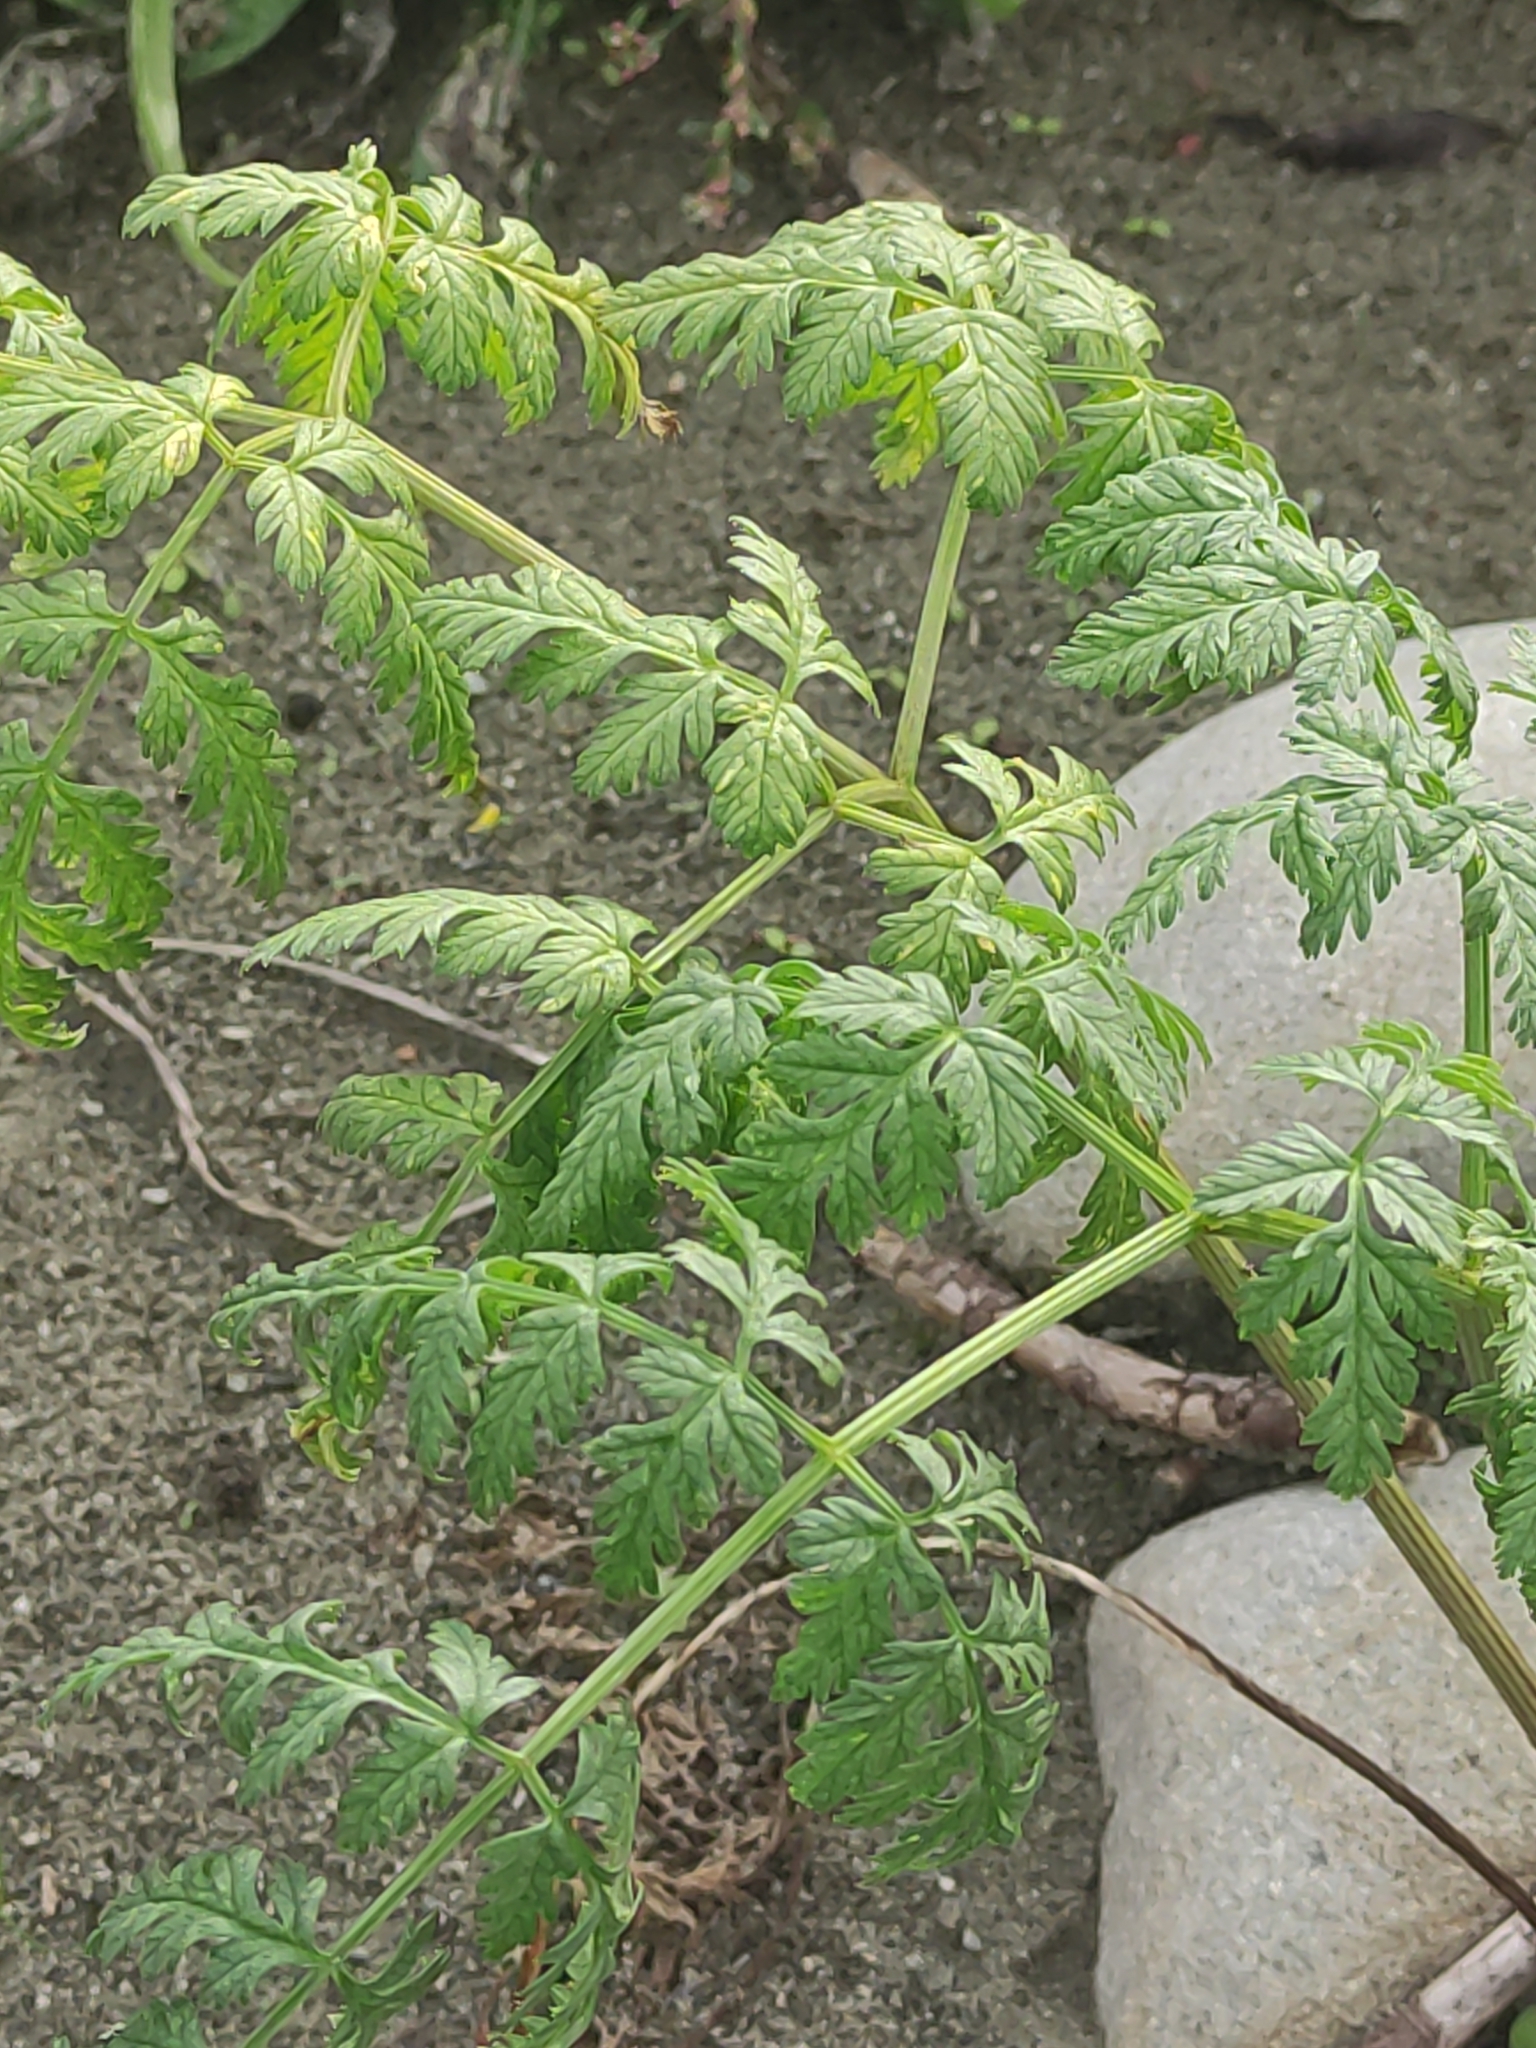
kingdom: Plantae
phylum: Tracheophyta
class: Magnoliopsida
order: Apiales
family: Apiaceae
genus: Conium
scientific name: Conium maculatum
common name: Hemlock
